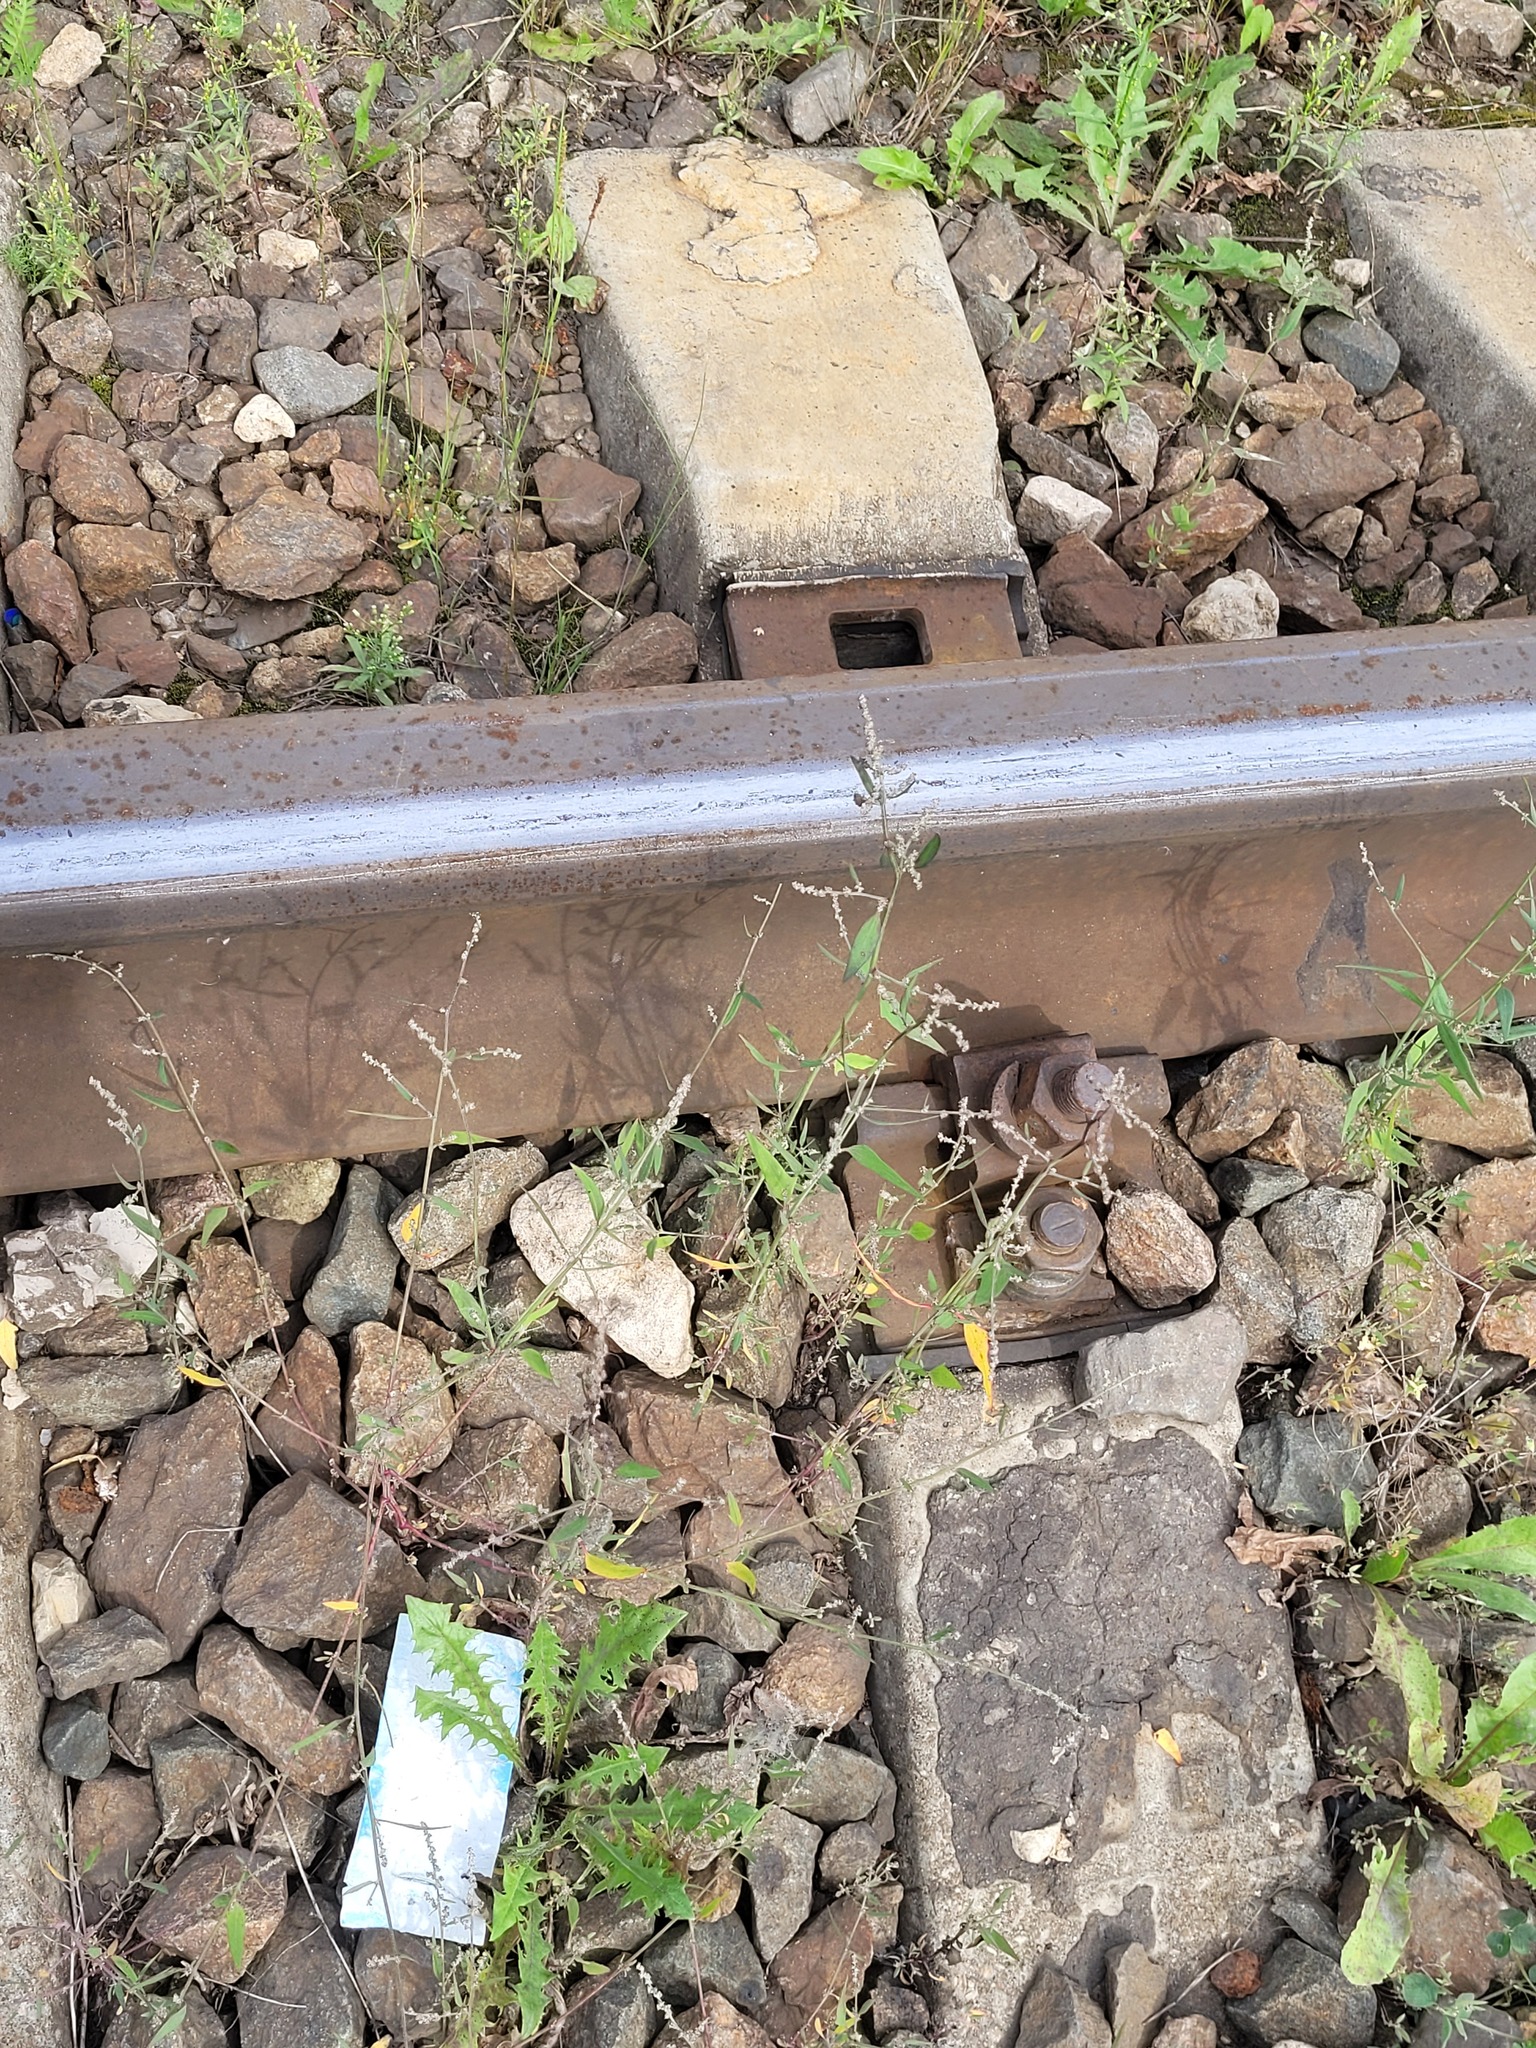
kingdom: Plantae
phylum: Tracheophyta
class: Magnoliopsida
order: Caryophyllales
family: Amaranthaceae
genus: Atriplex
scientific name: Atriplex patula
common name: Common orache
